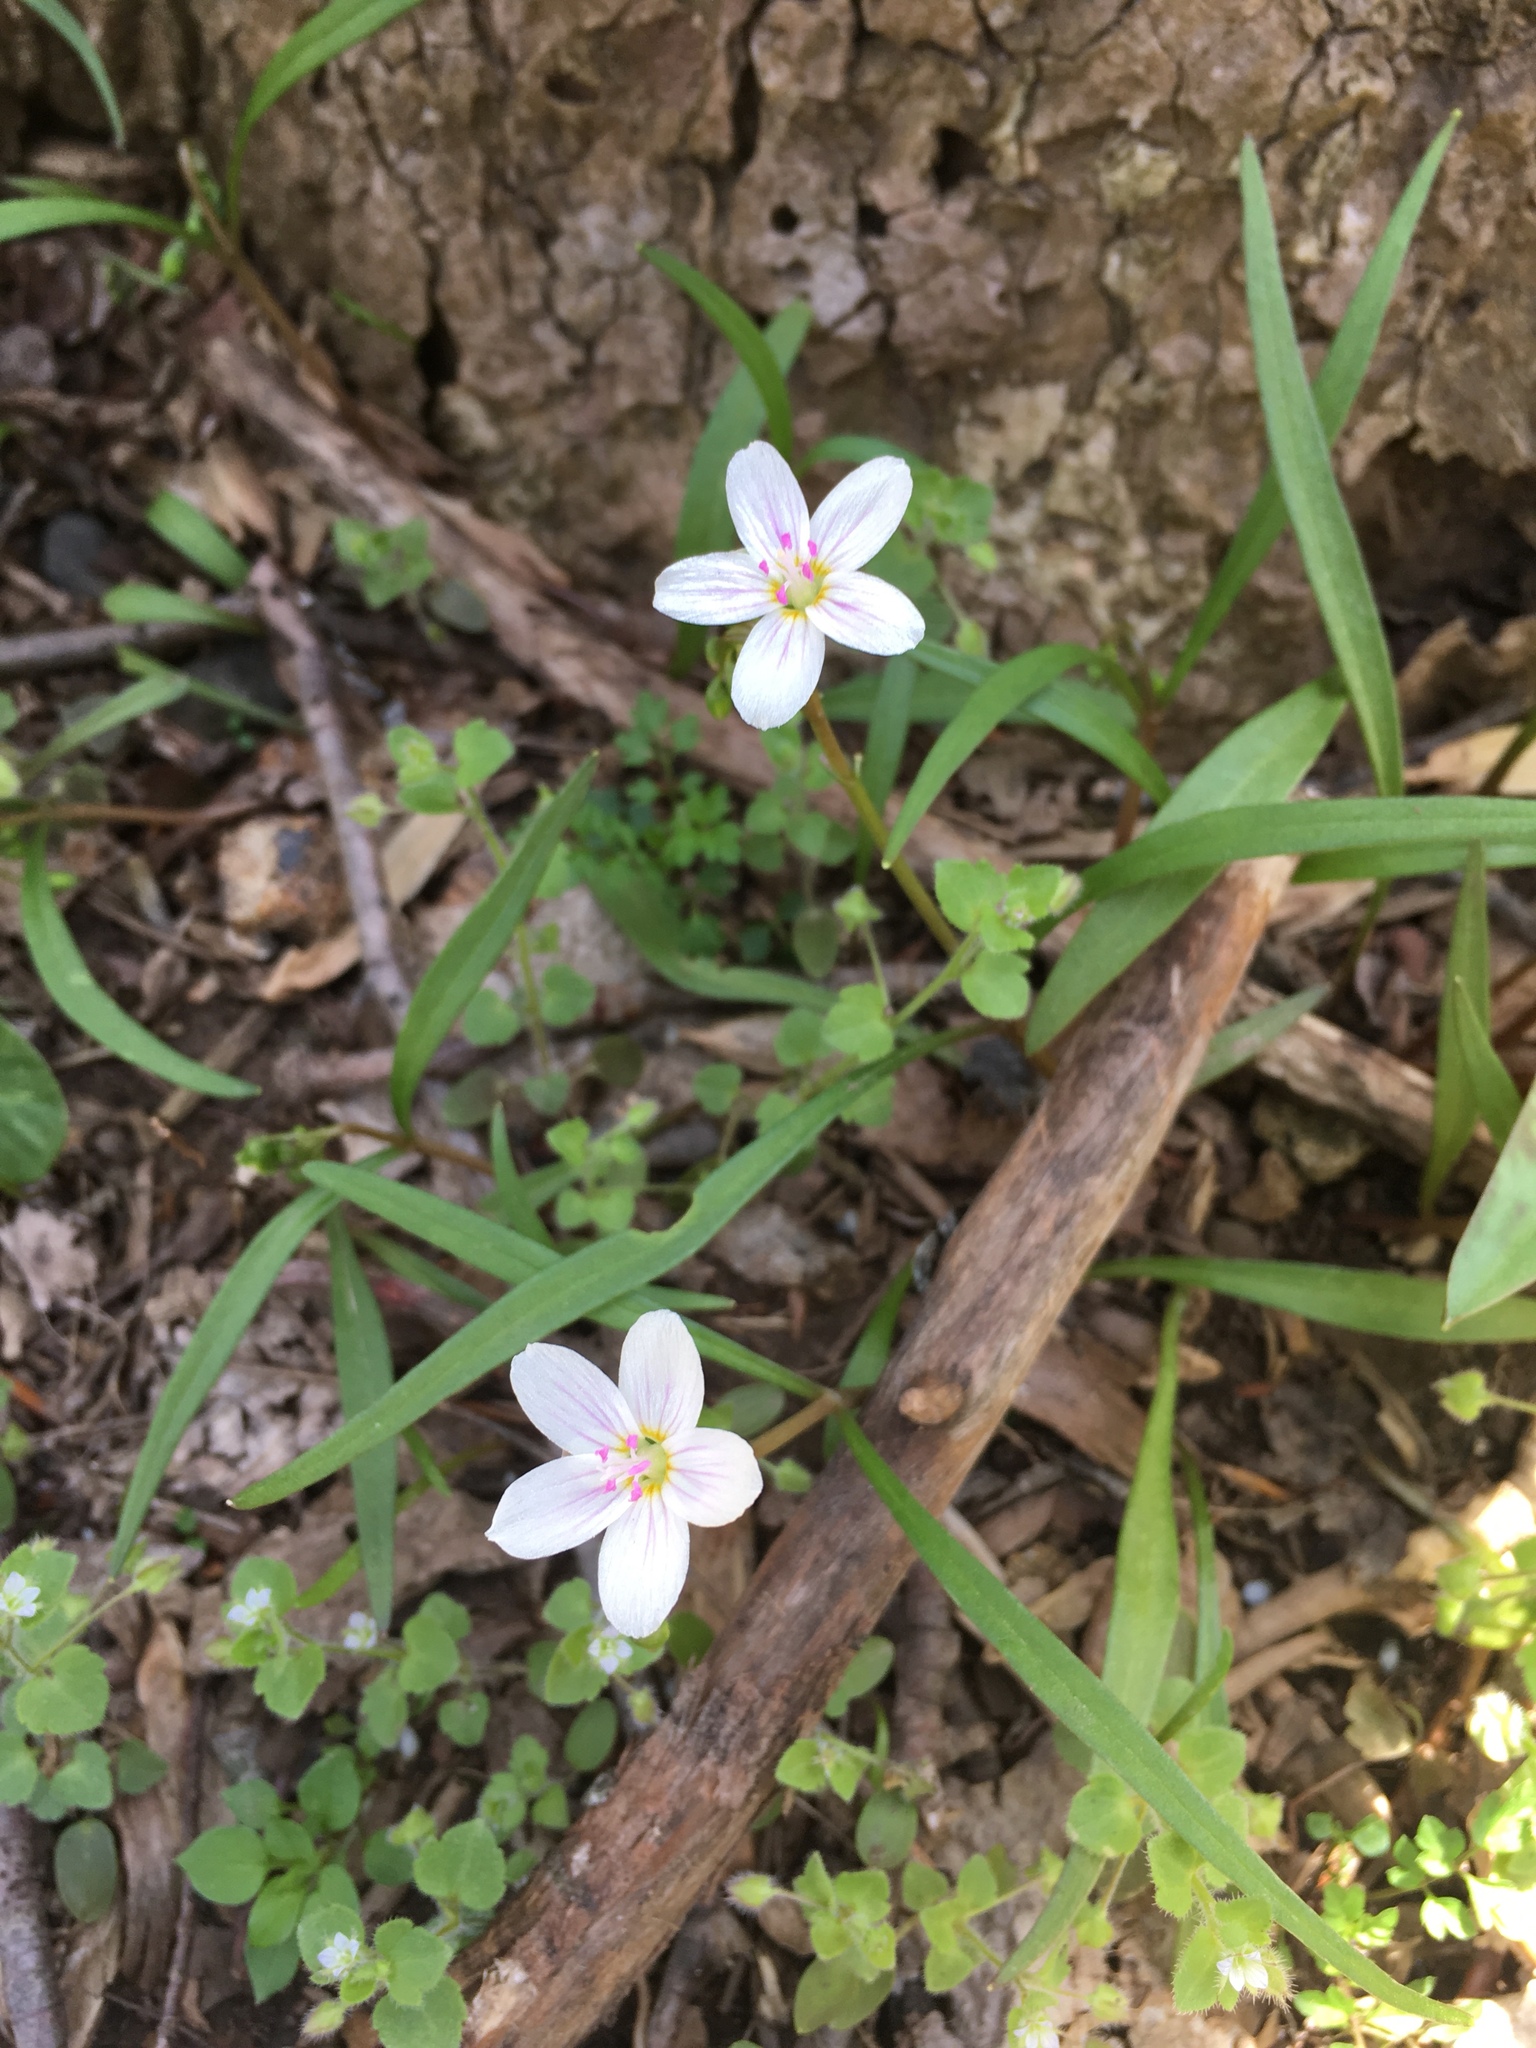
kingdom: Plantae
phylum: Tracheophyta
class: Magnoliopsida
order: Caryophyllales
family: Montiaceae
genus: Claytonia
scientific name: Claytonia virginica
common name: Virginia springbeauty
